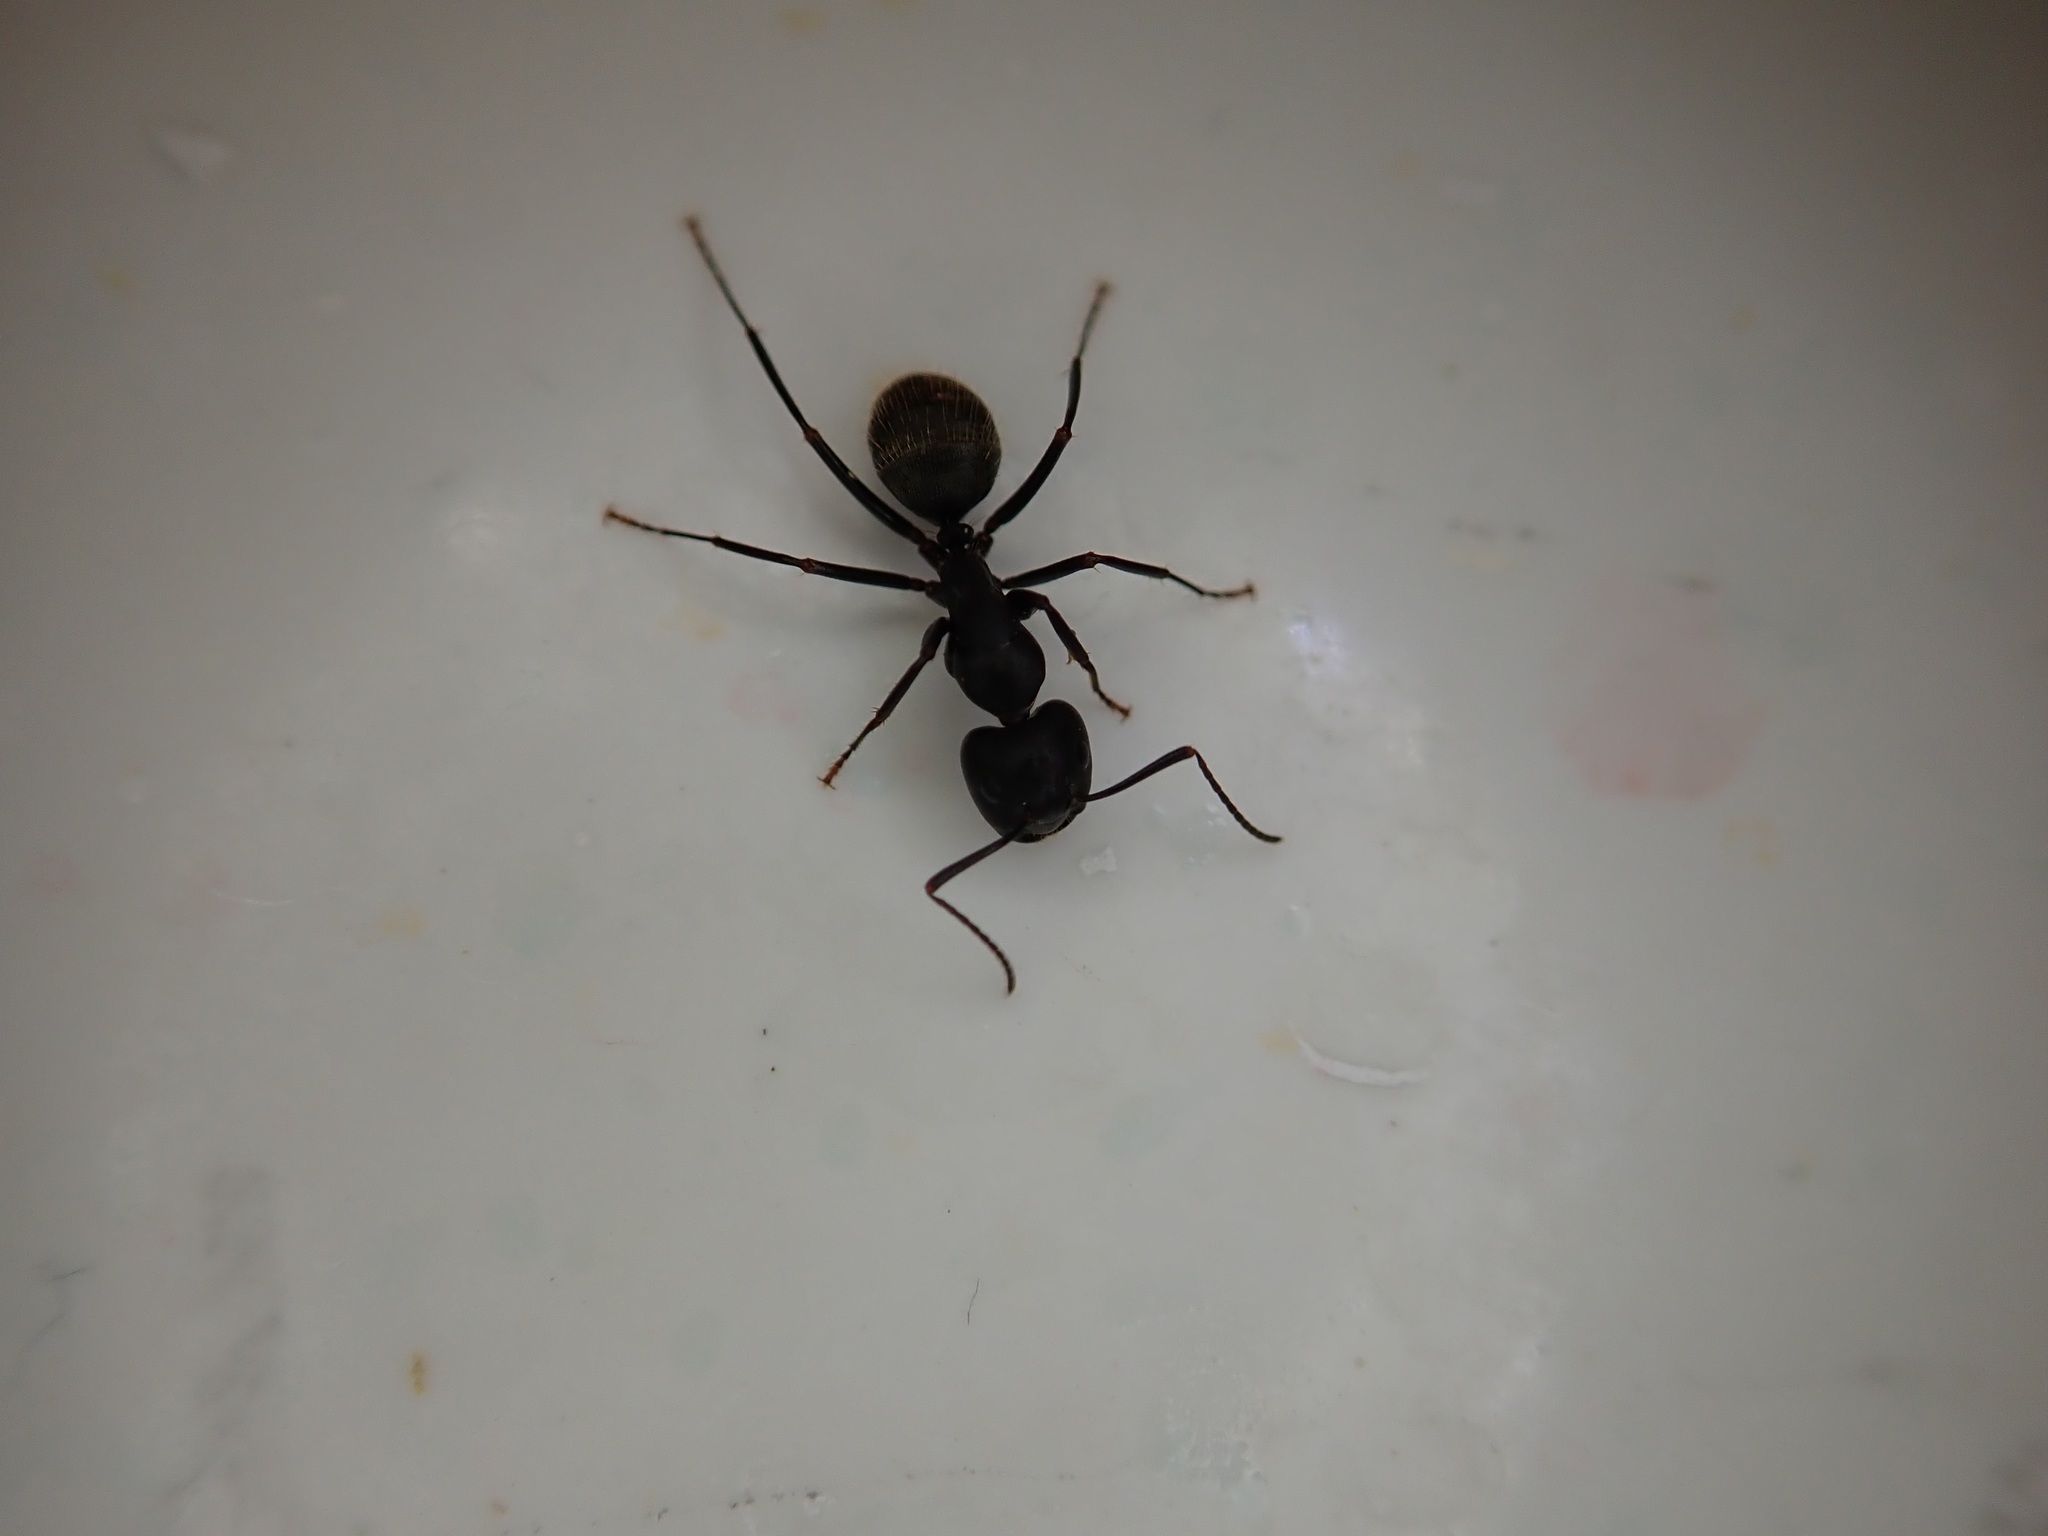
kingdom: Animalia
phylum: Arthropoda
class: Insecta
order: Hymenoptera
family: Formicidae
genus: Camponotus
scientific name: Camponotus pennsylvanicus
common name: Black carpenter ant
